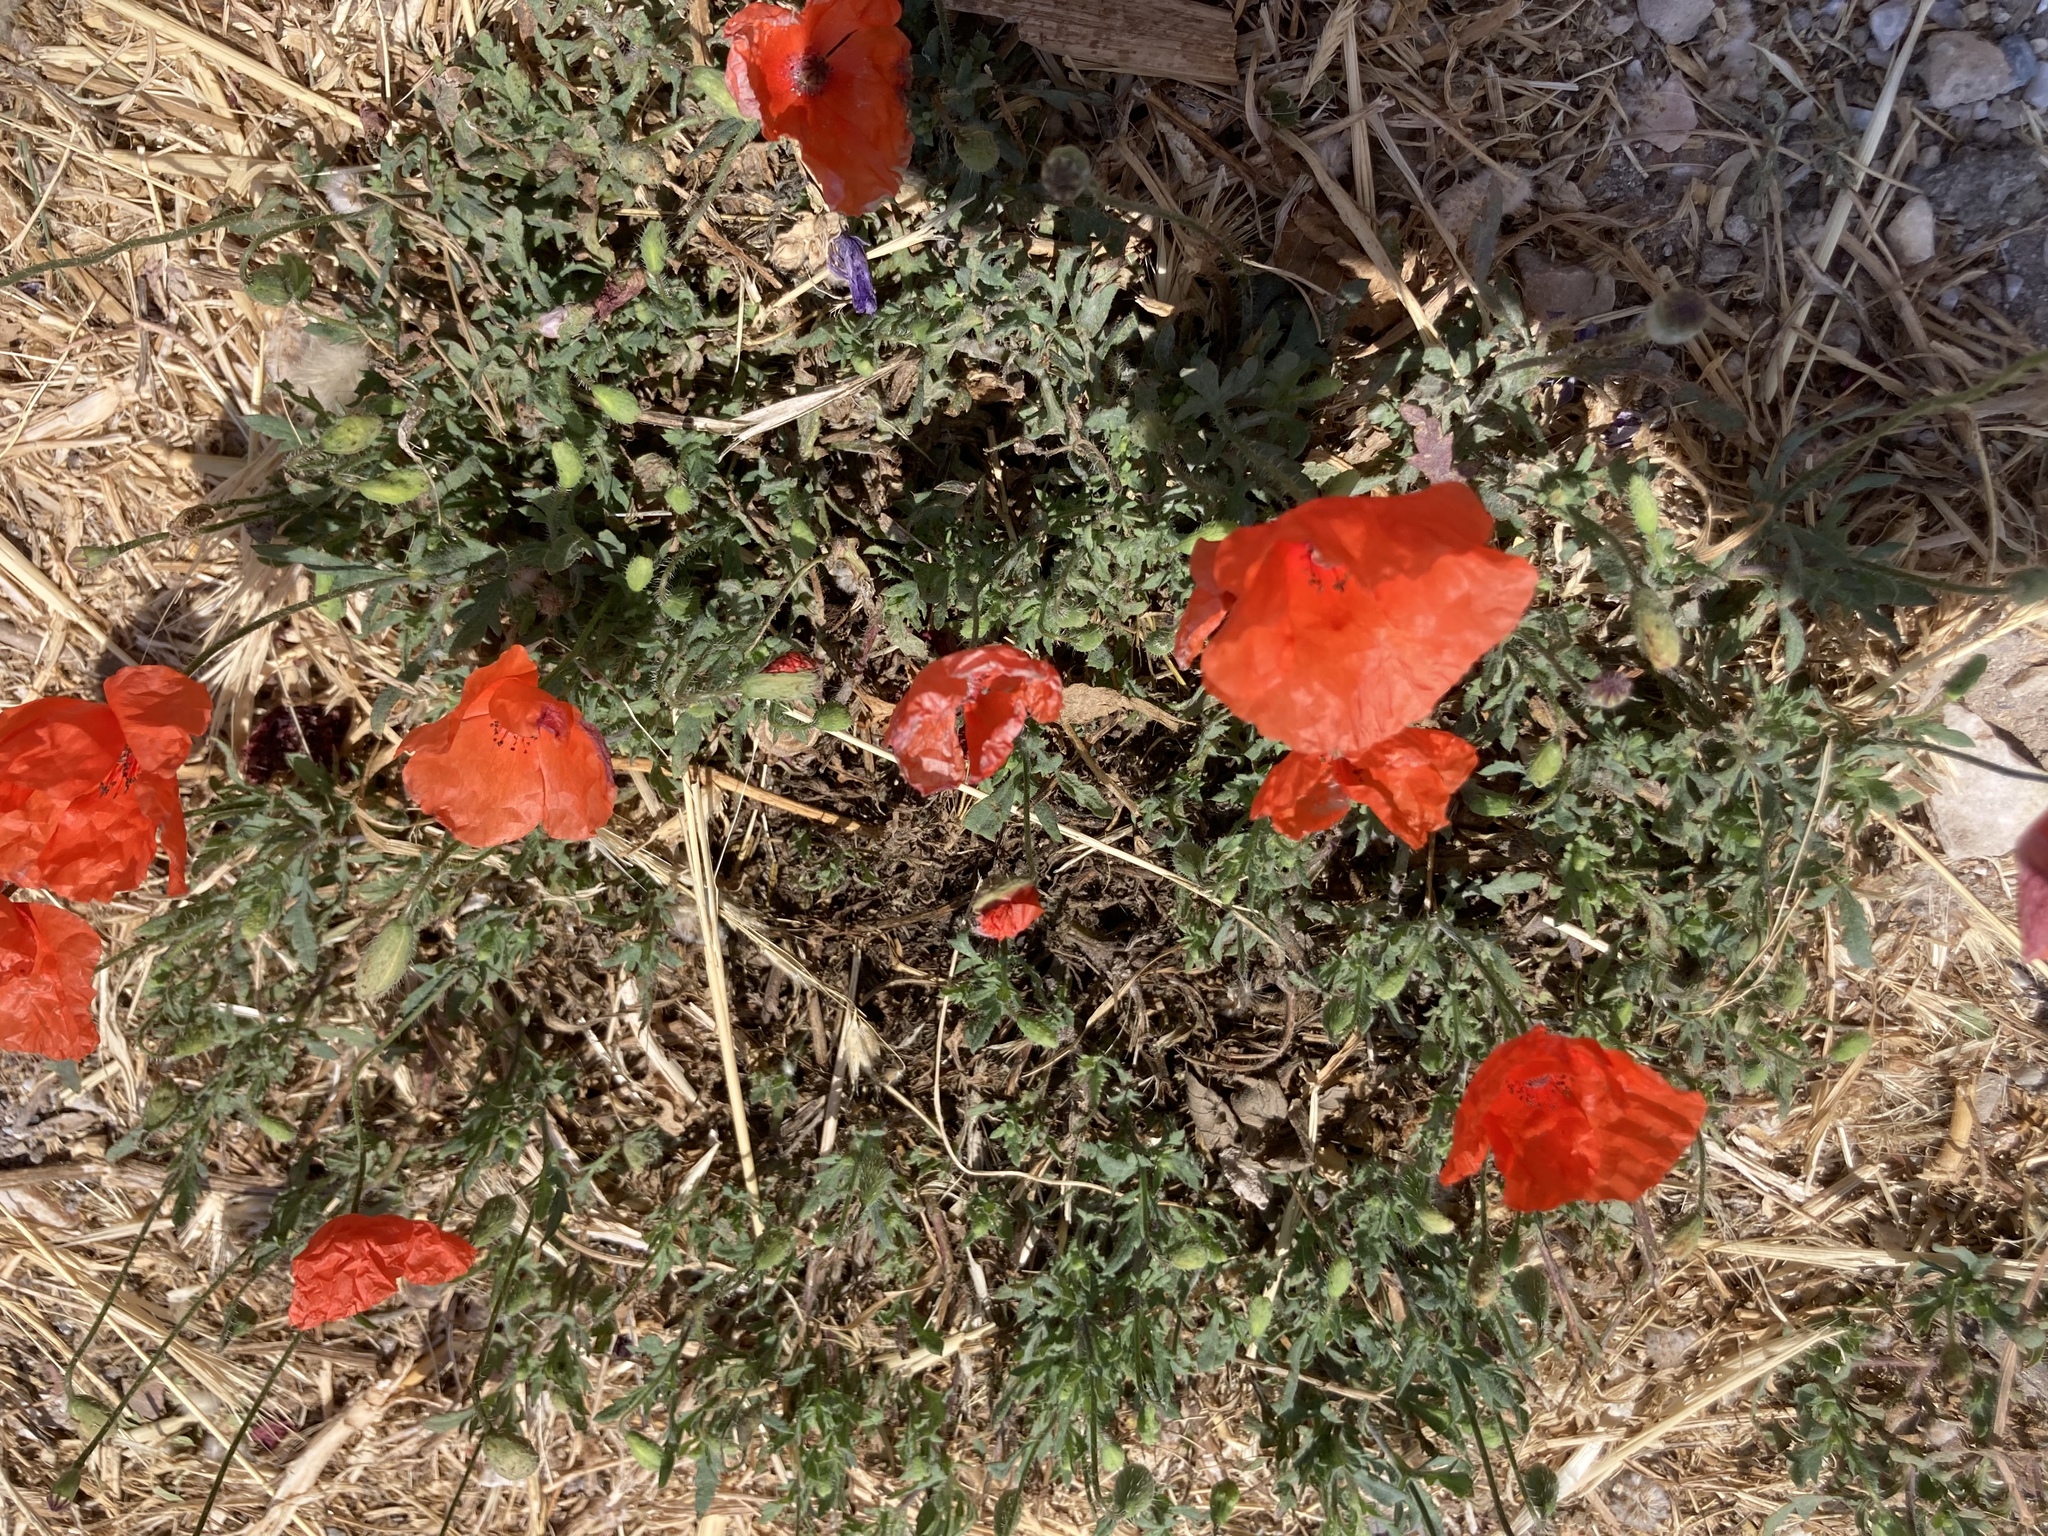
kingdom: Plantae
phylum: Tracheophyta
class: Magnoliopsida
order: Ranunculales
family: Papaveraceae
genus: Papaver
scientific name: Papaver rhoeas
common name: Corn poppy
